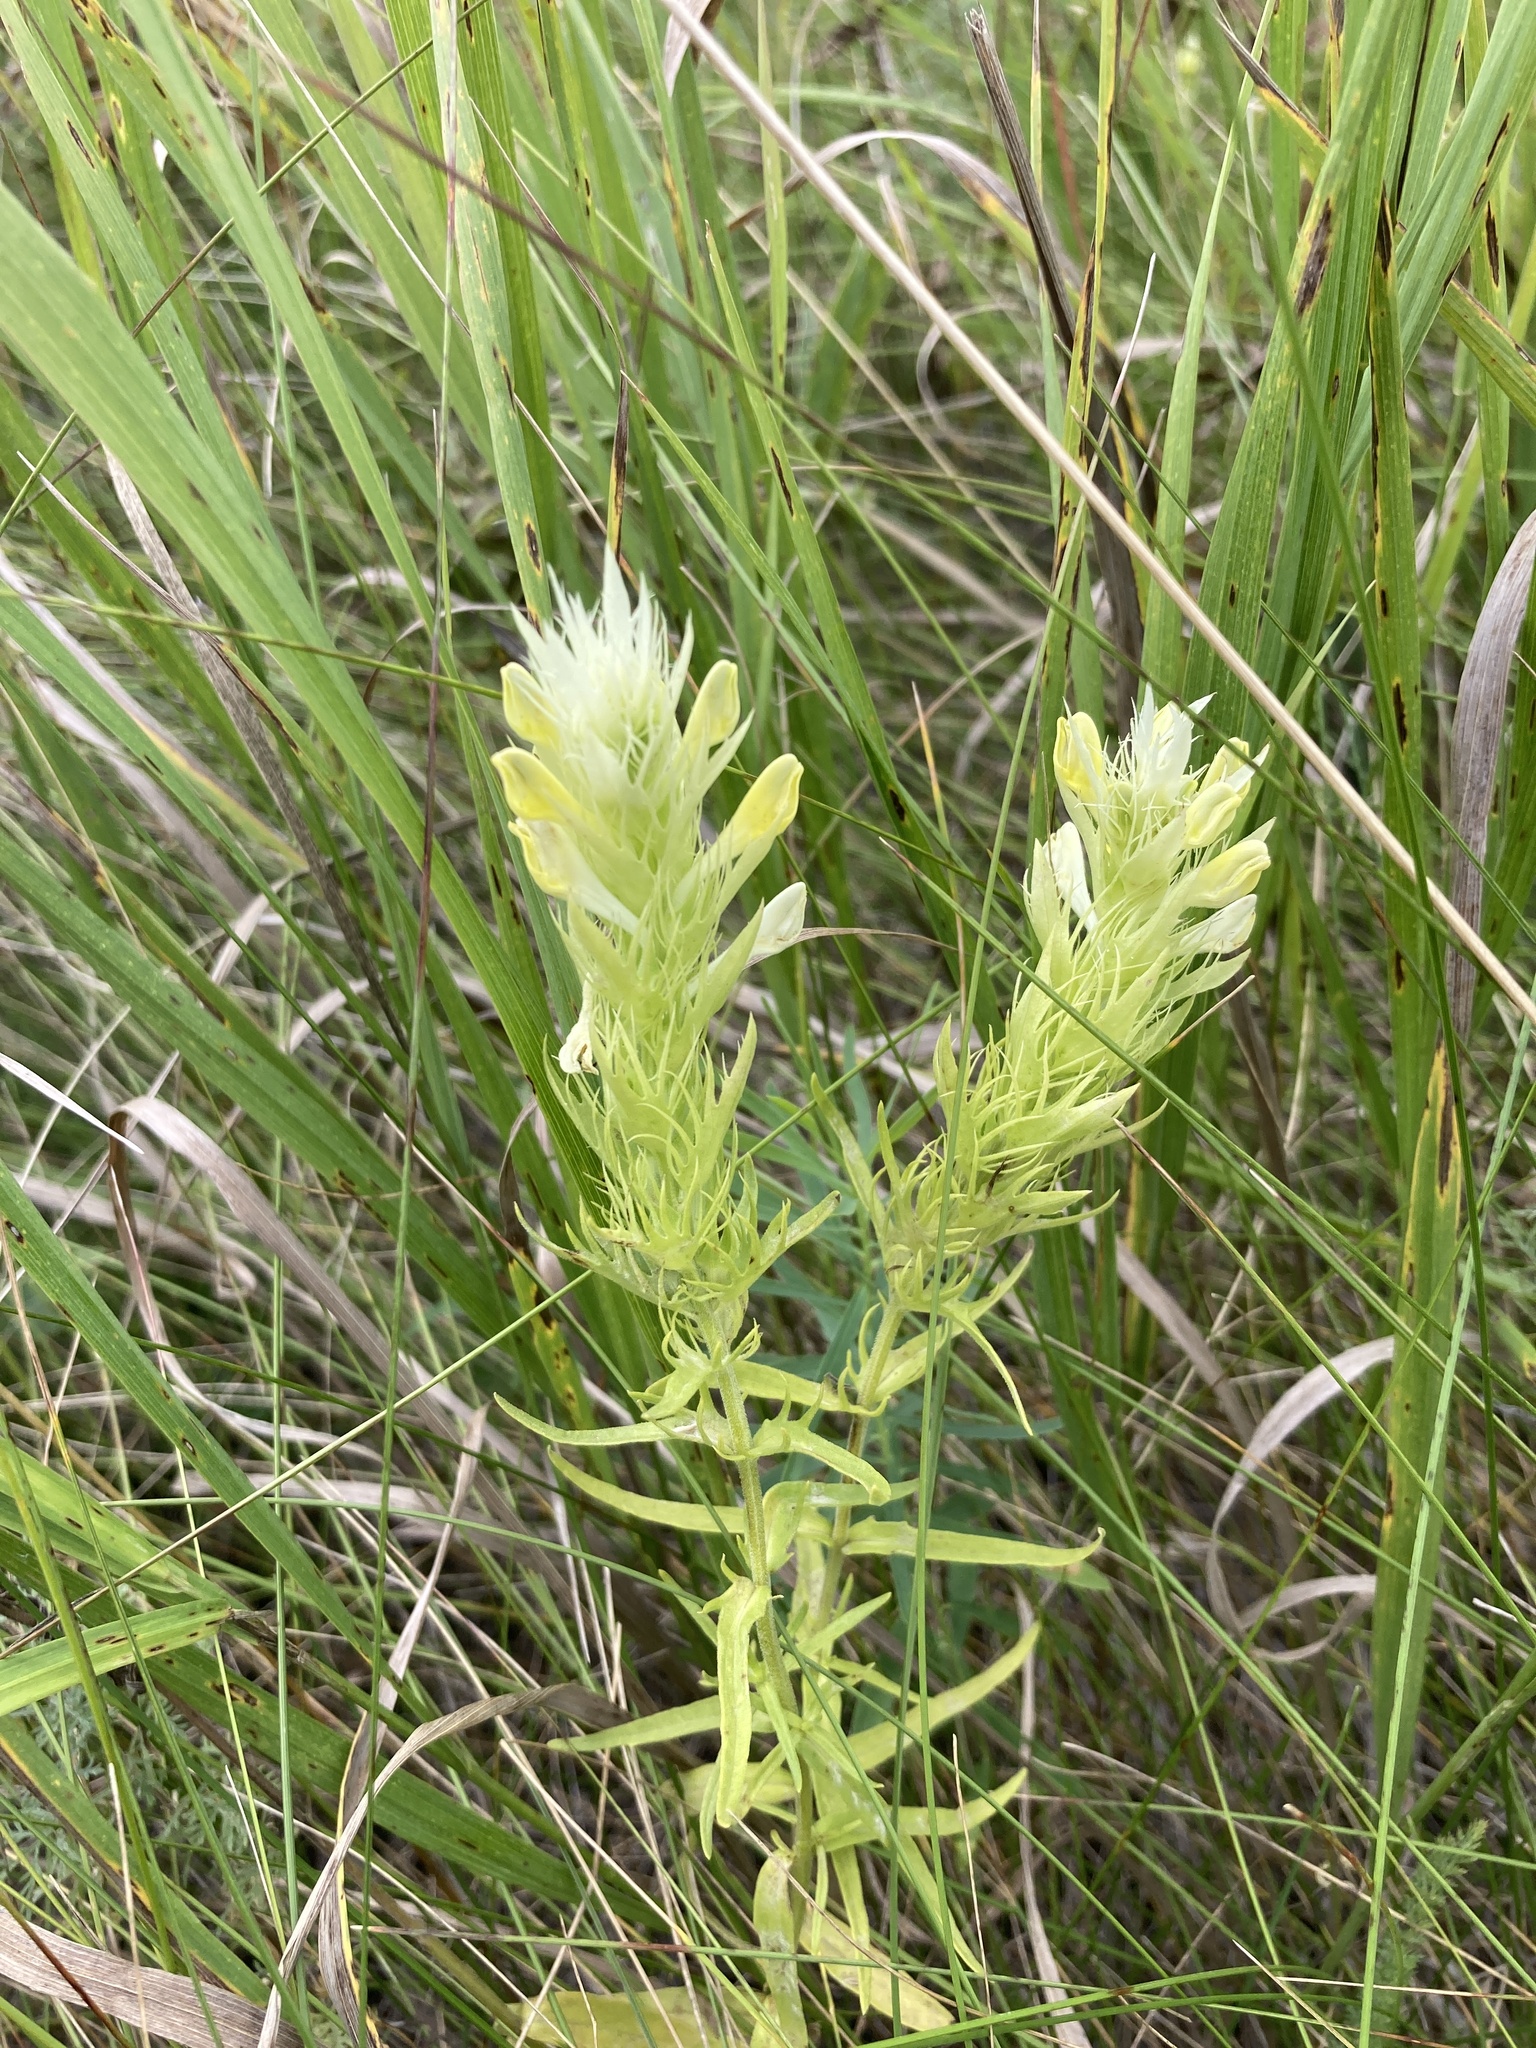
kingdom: Plantae
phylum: Tracheophyta
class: Magnoliopsida
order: Lamiales
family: Orobanchaceae
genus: Melampyrum
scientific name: Melampyrum arvense
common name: Field cow-wheat
